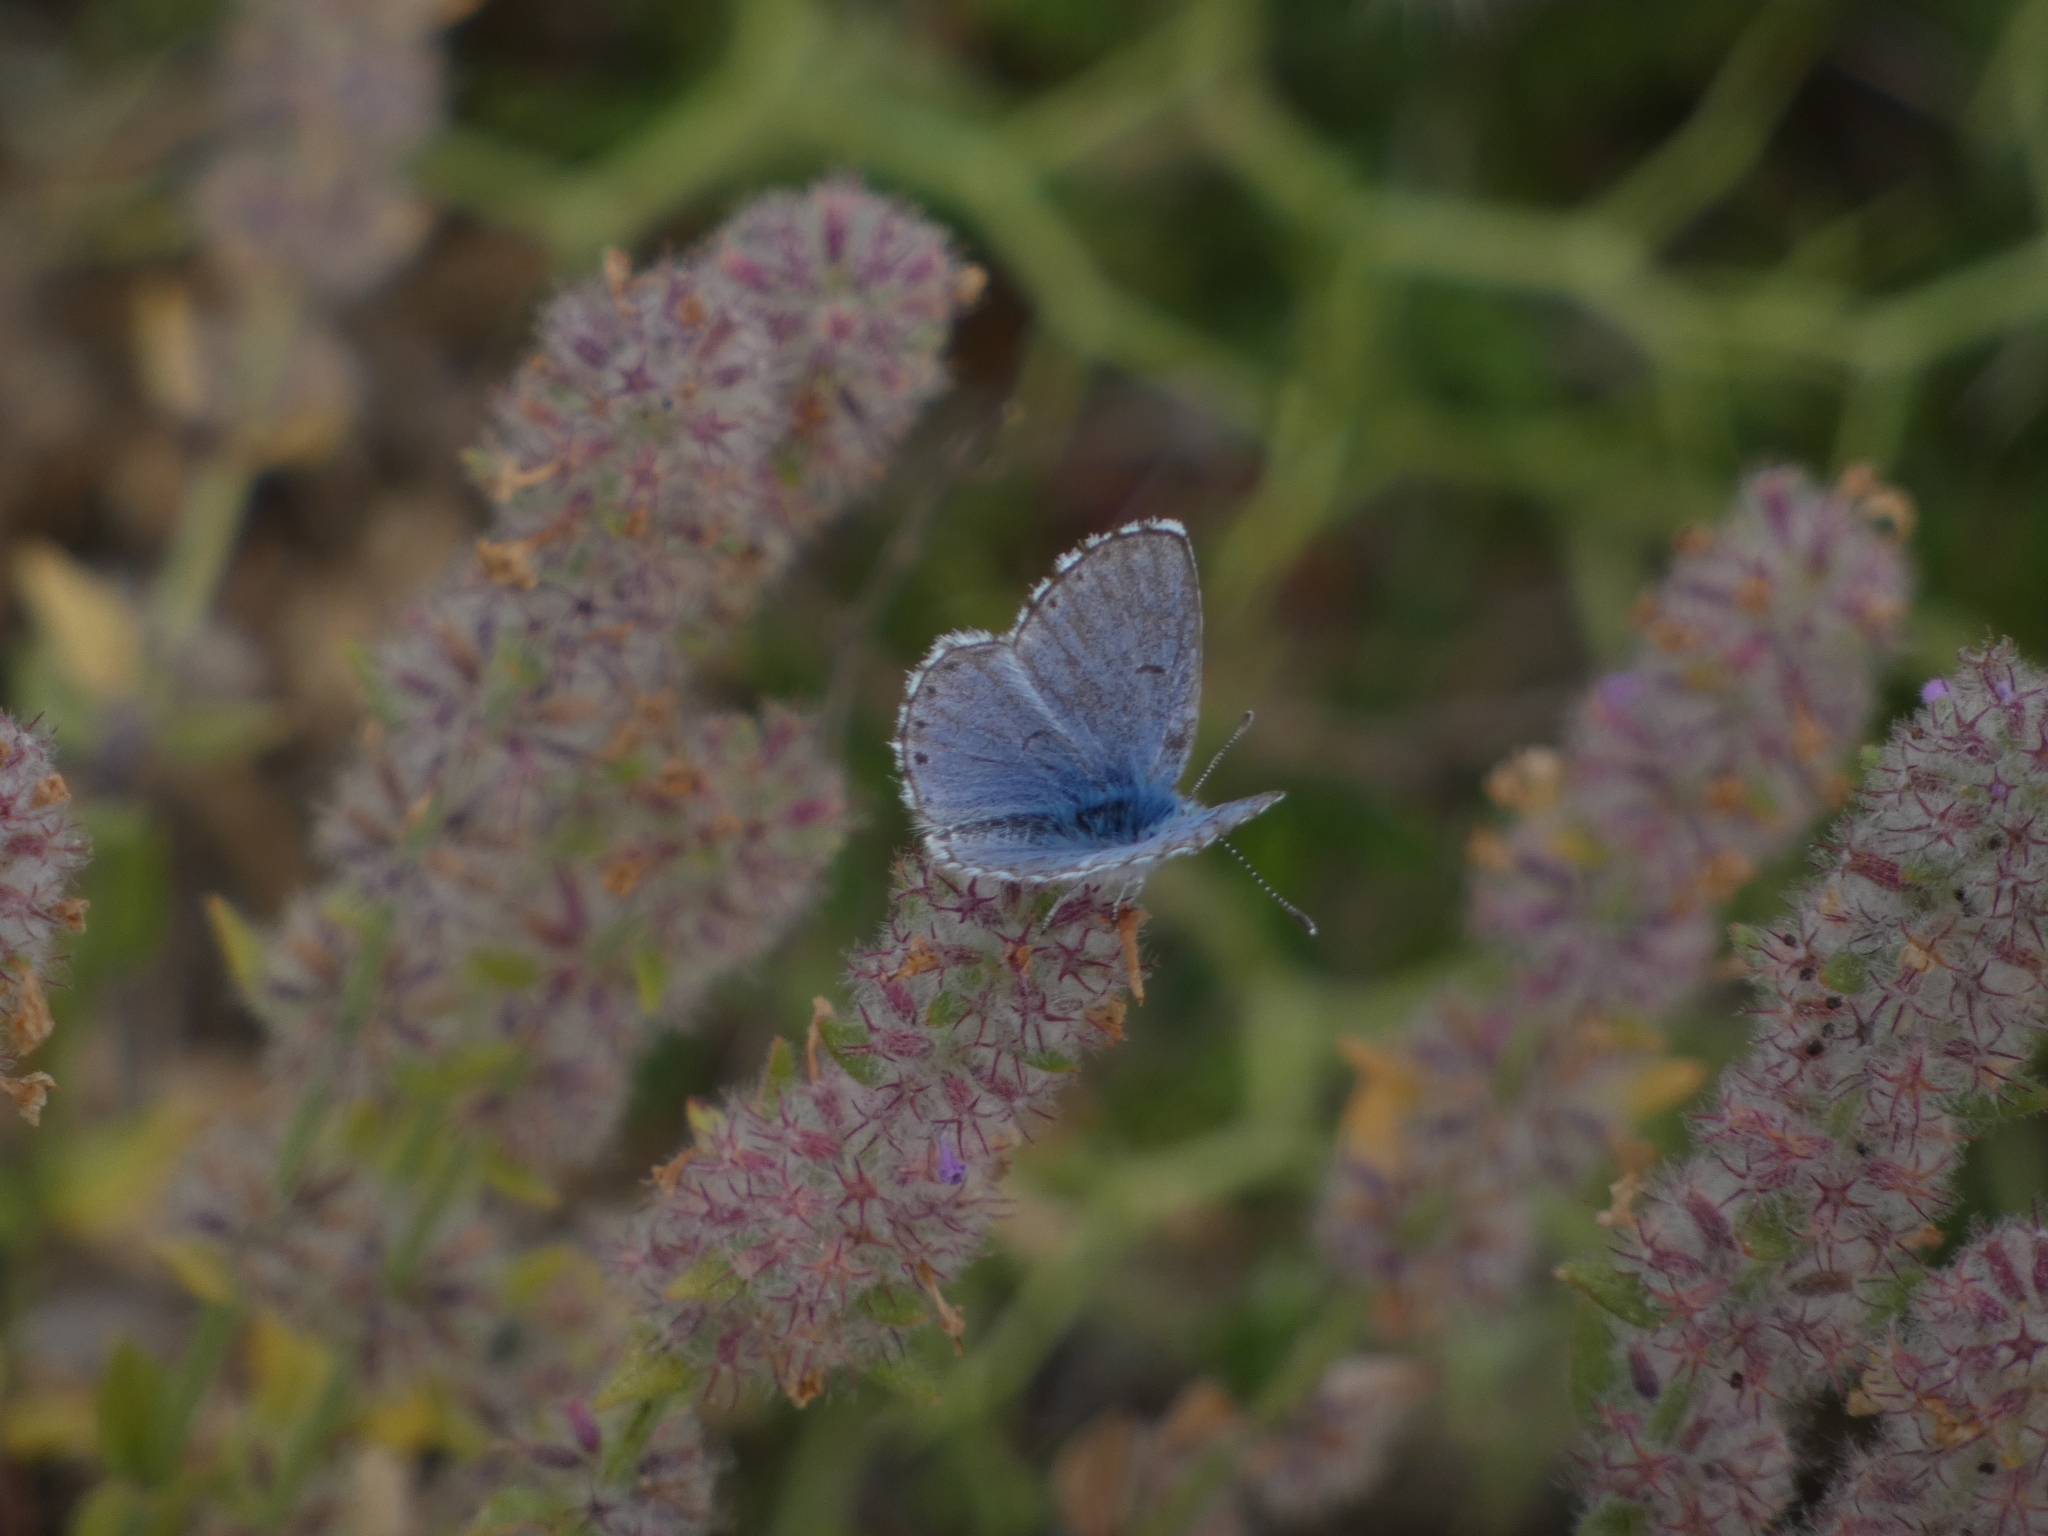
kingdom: Animalia
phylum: Arthropoda
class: Insecta
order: Lepidoptera
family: Lycaenidae
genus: Pseudophilotes
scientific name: Pseudophilotes baton
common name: Baton blue
